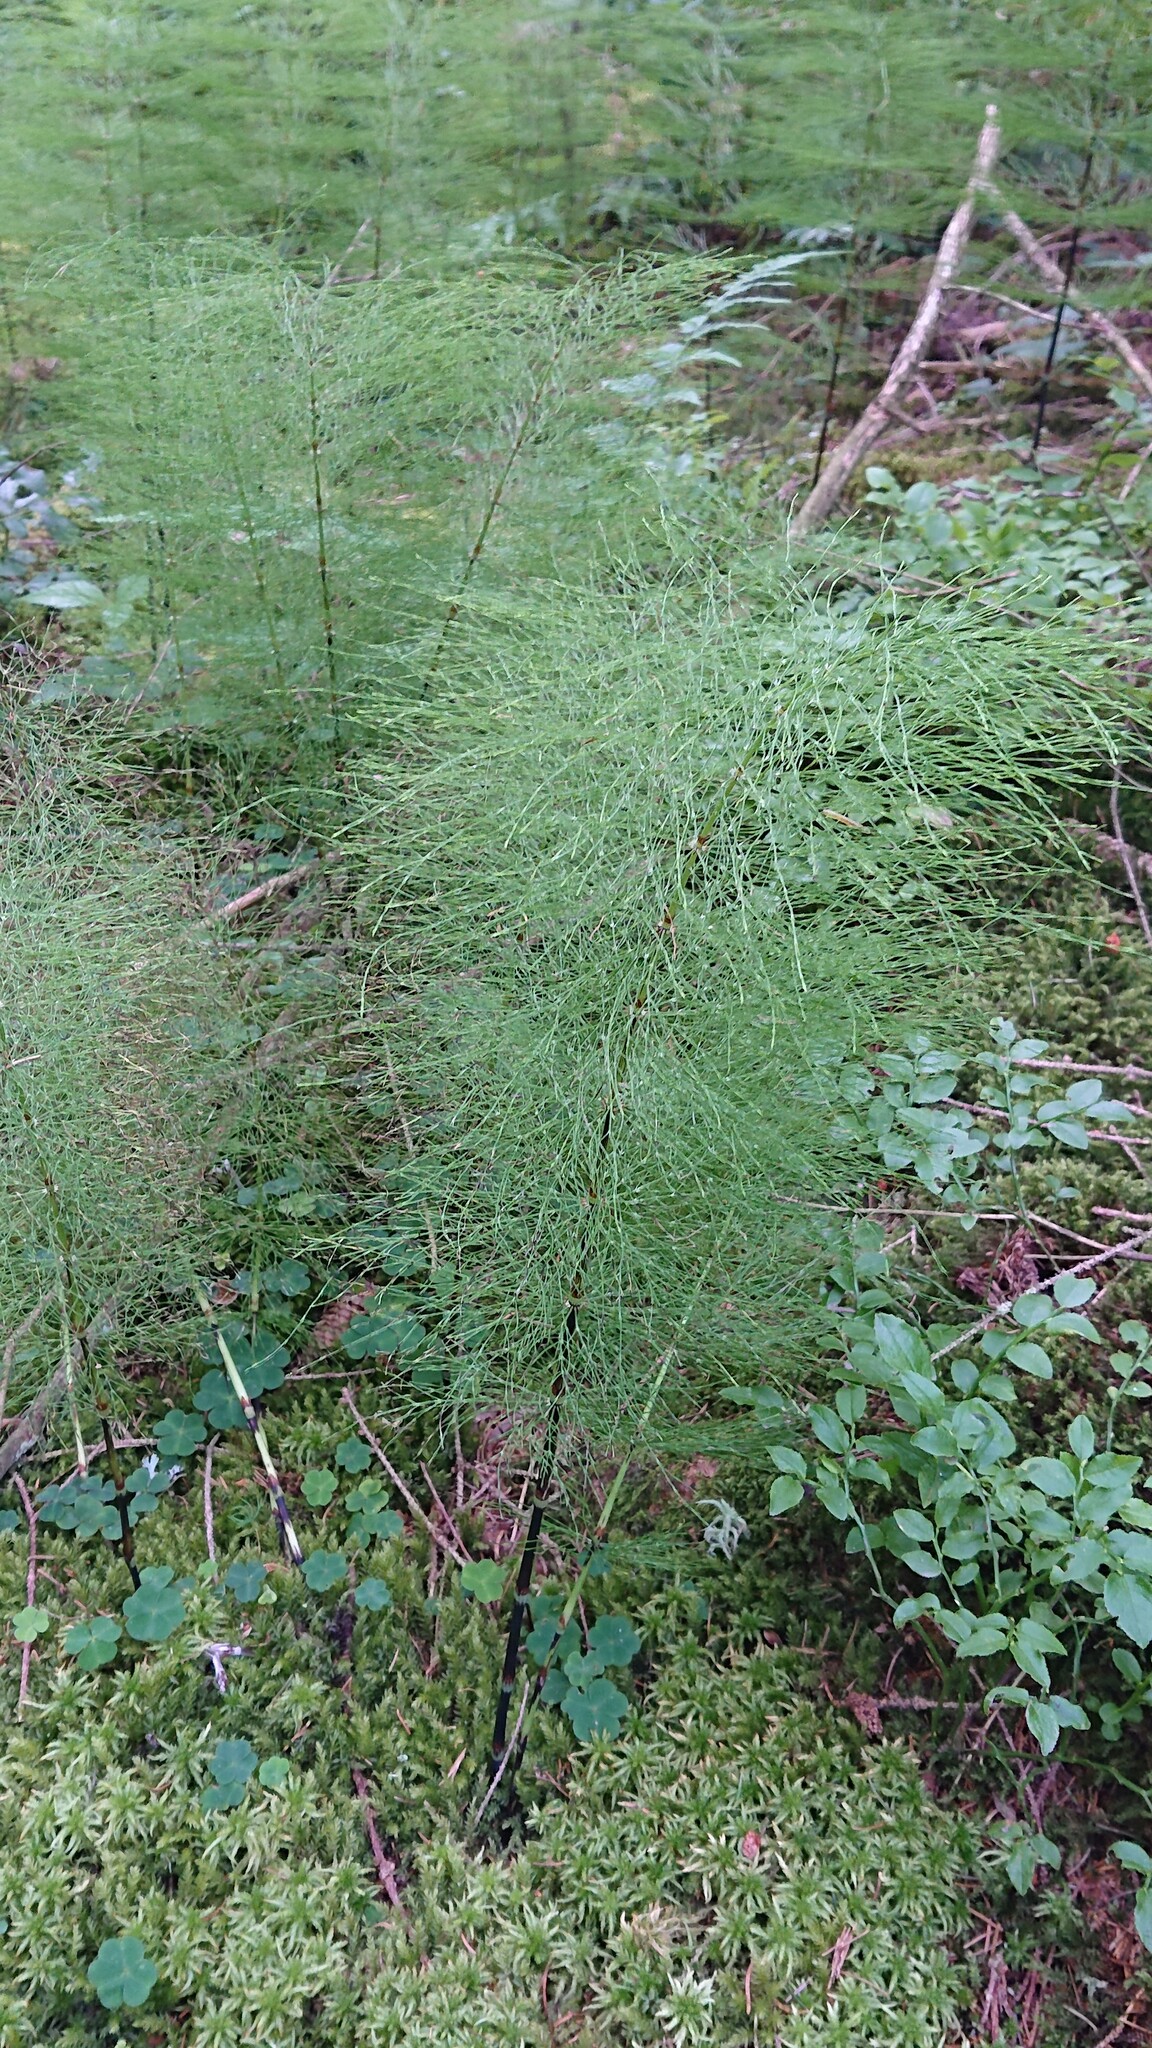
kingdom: Plantae
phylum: Tracheophyta
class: Polypodiopsida
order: Equisetales
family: Equisetaceae
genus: Equisetum
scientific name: Equisetum sylvaticum
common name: Wood horsetail
